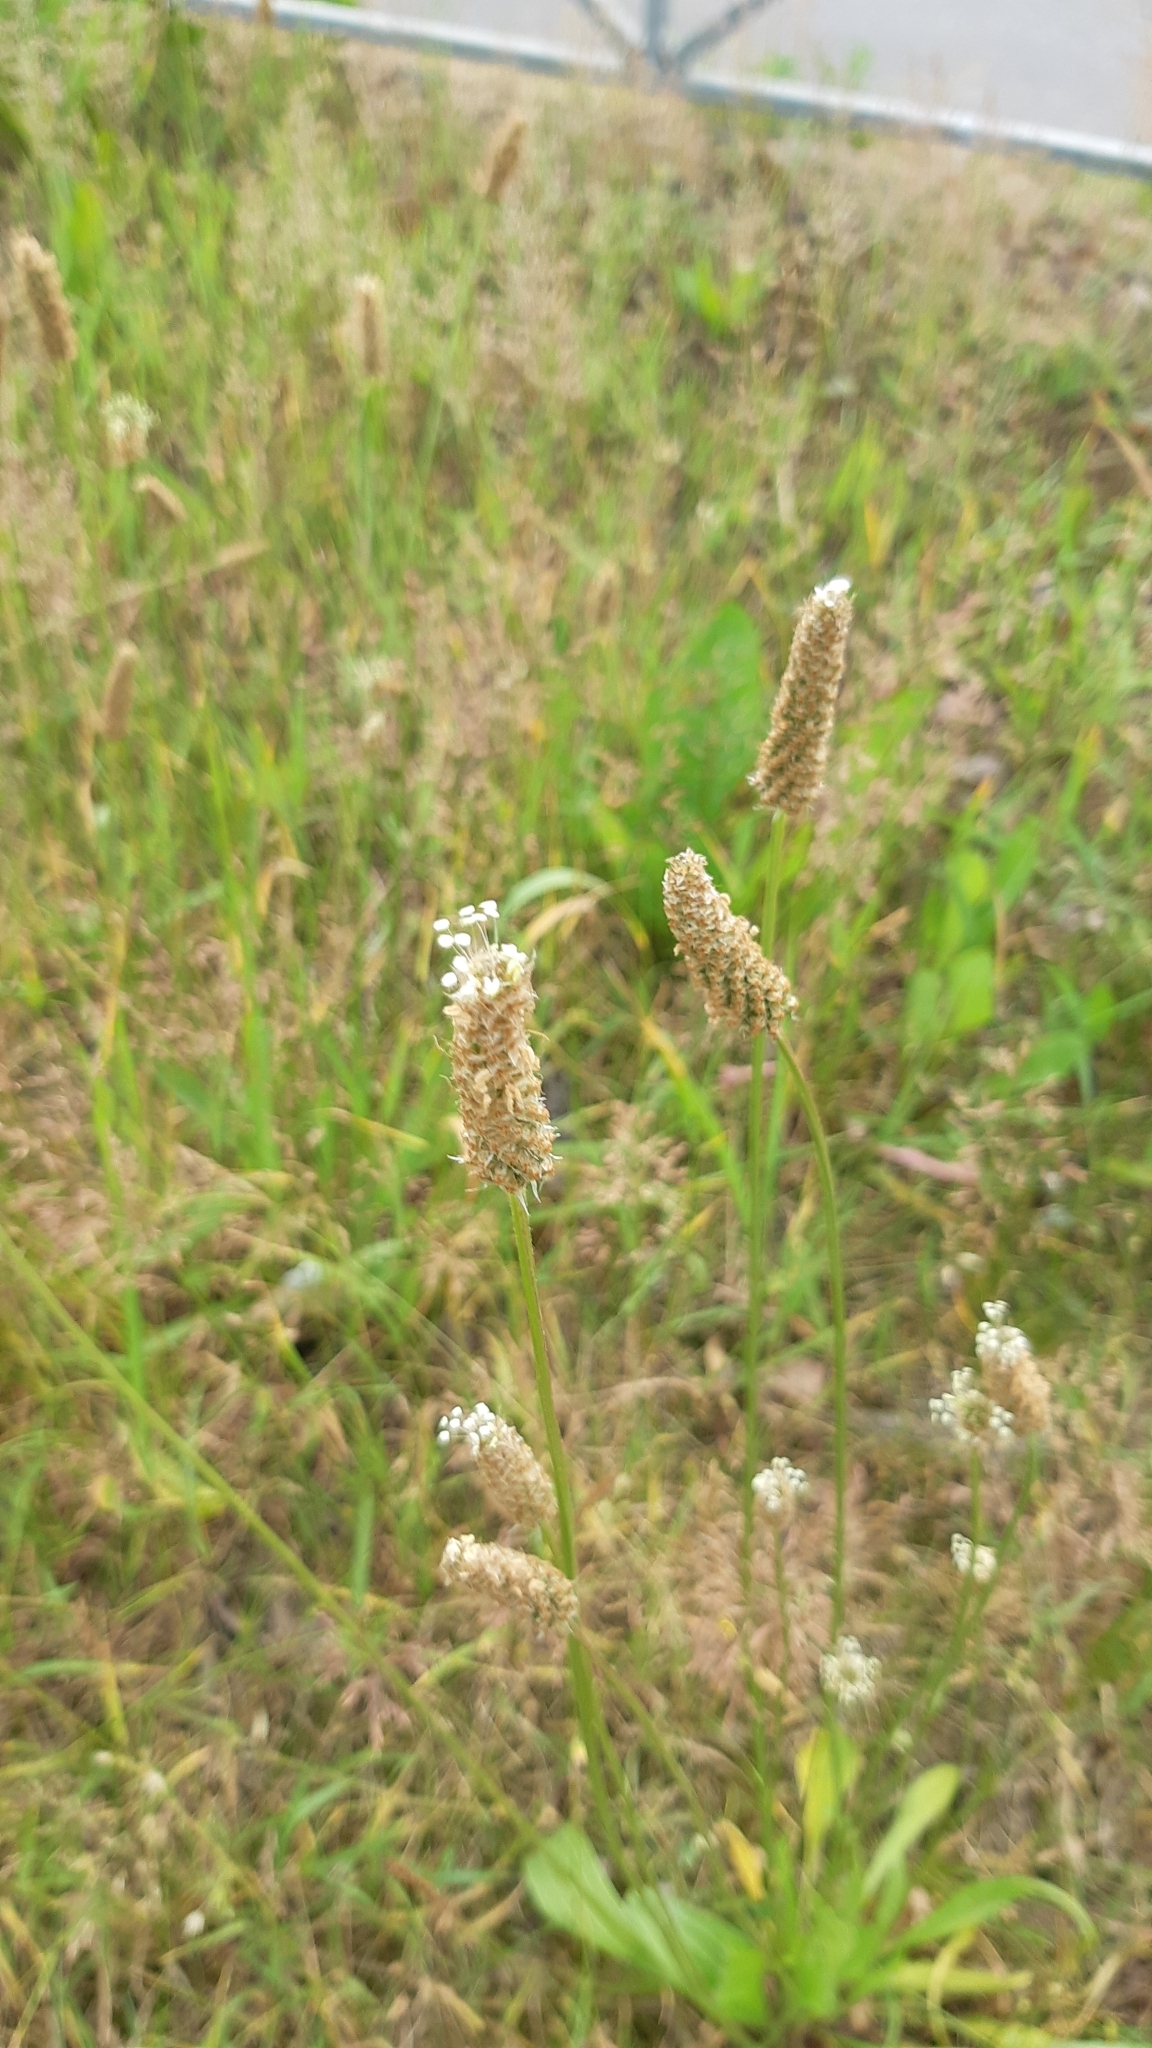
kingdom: Plantae
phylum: Tracheophyta
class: Magnoliopsida
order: Lamiales
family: Plantaginaceae
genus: Plantago
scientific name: Plantago lanceolata
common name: Ribwort plantain
